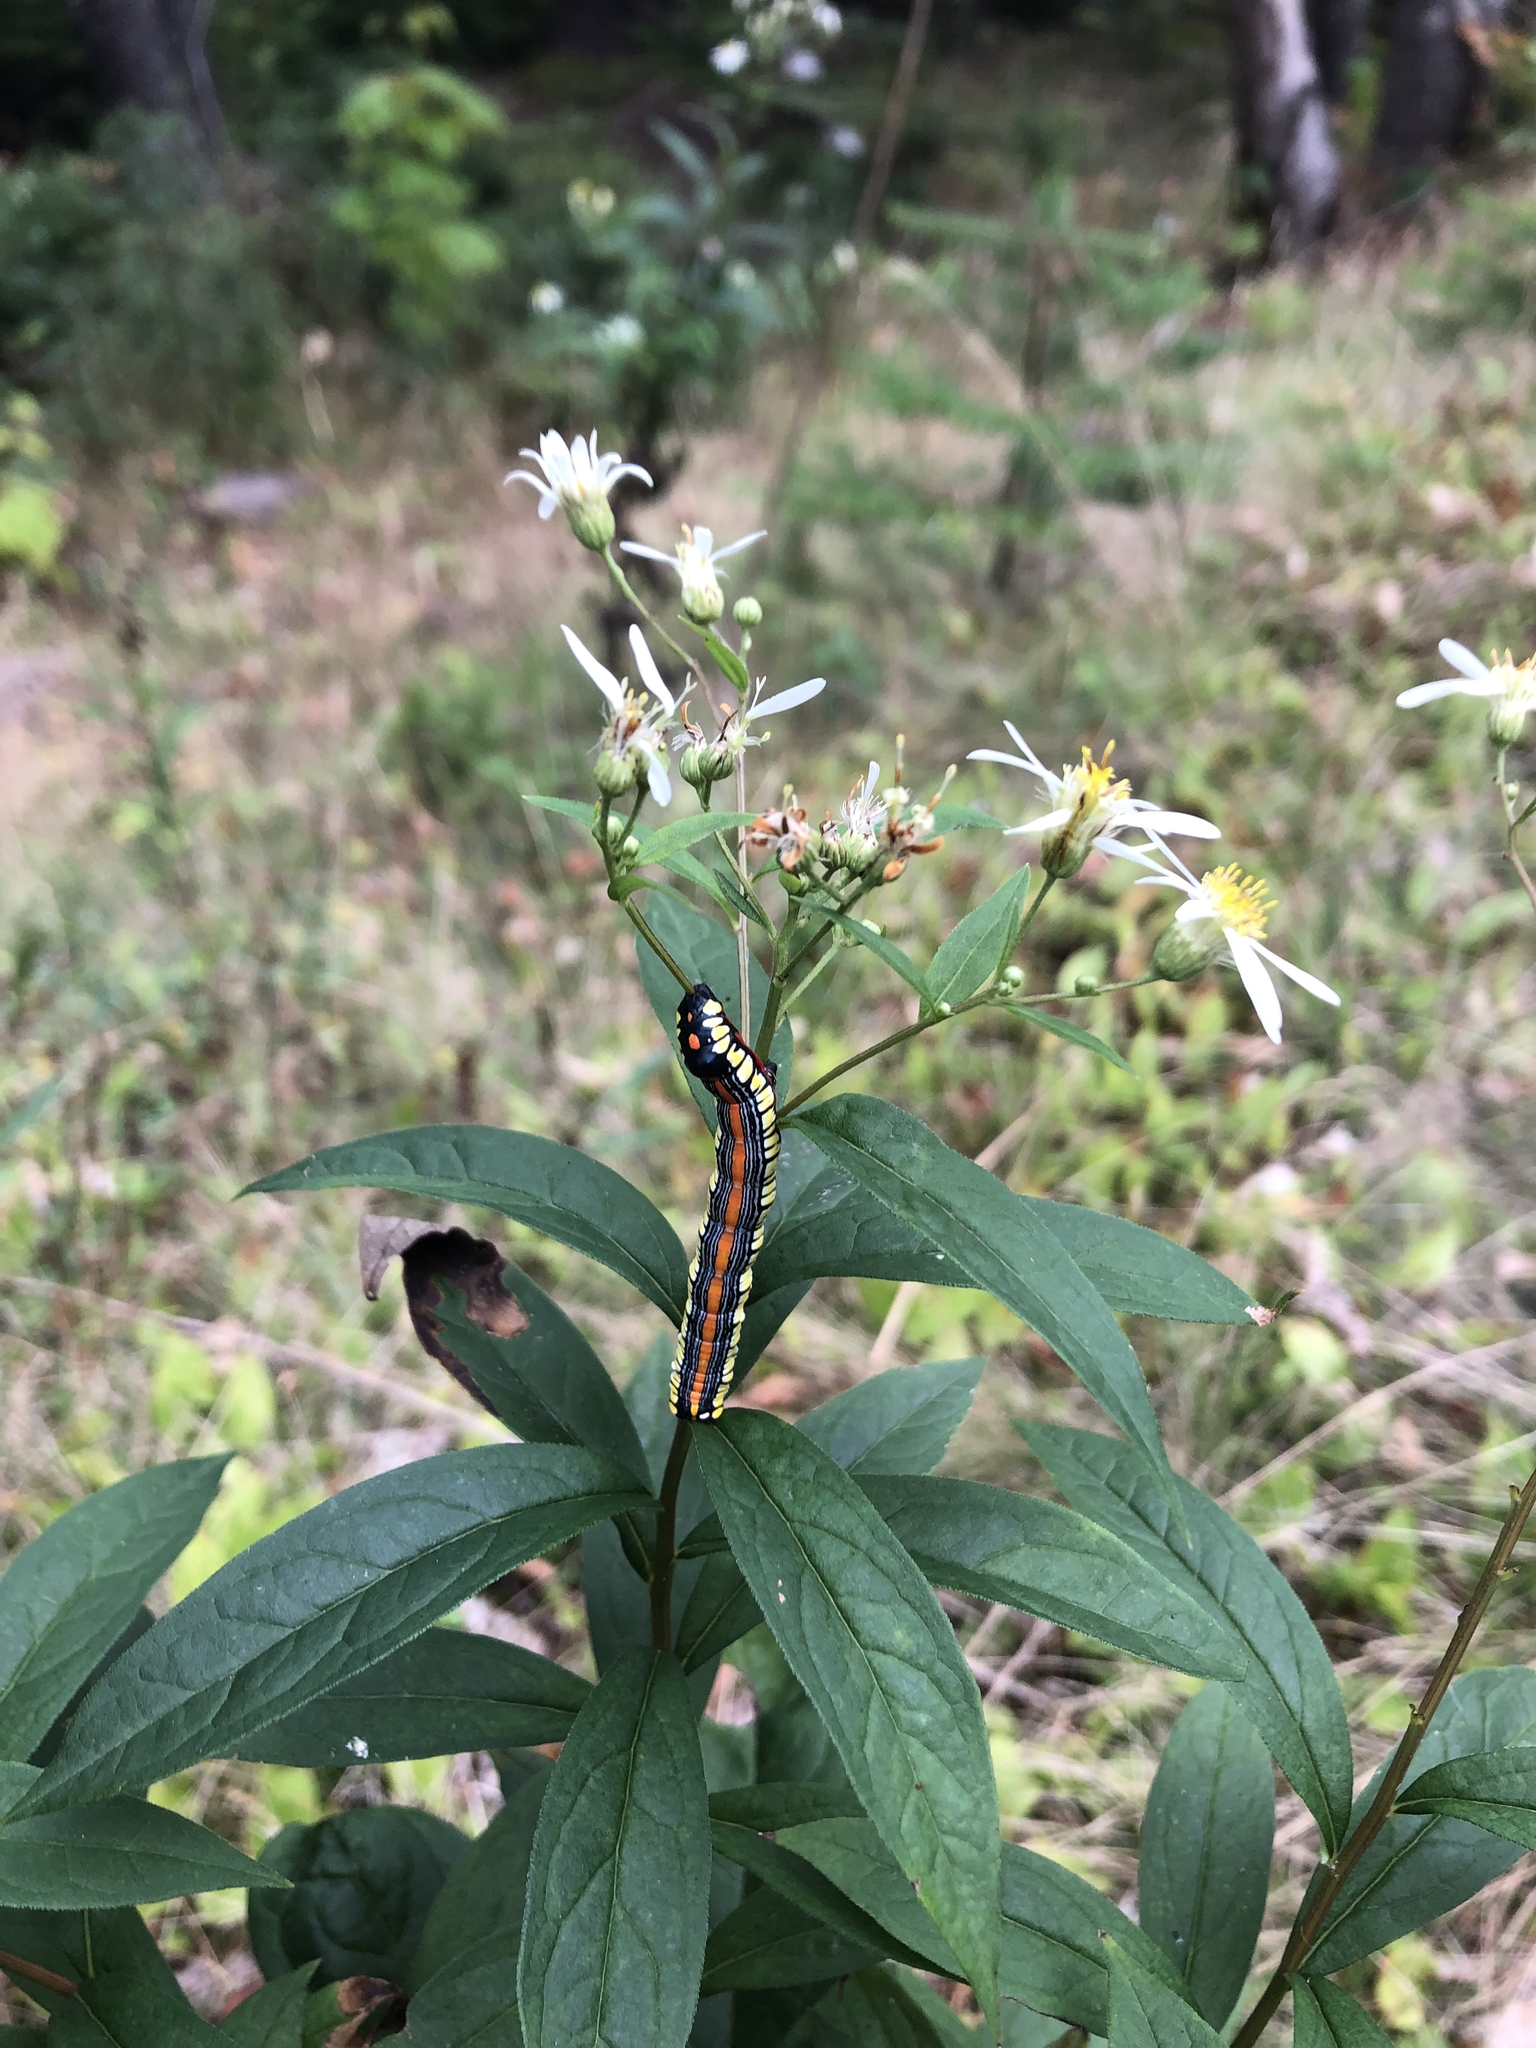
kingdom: Animalia
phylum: Arthropoda
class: Insecta
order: Lepidoptera
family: Noctuidae
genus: Cucullia
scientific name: Cucullia convexipennis
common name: Brown-hooded owlet
